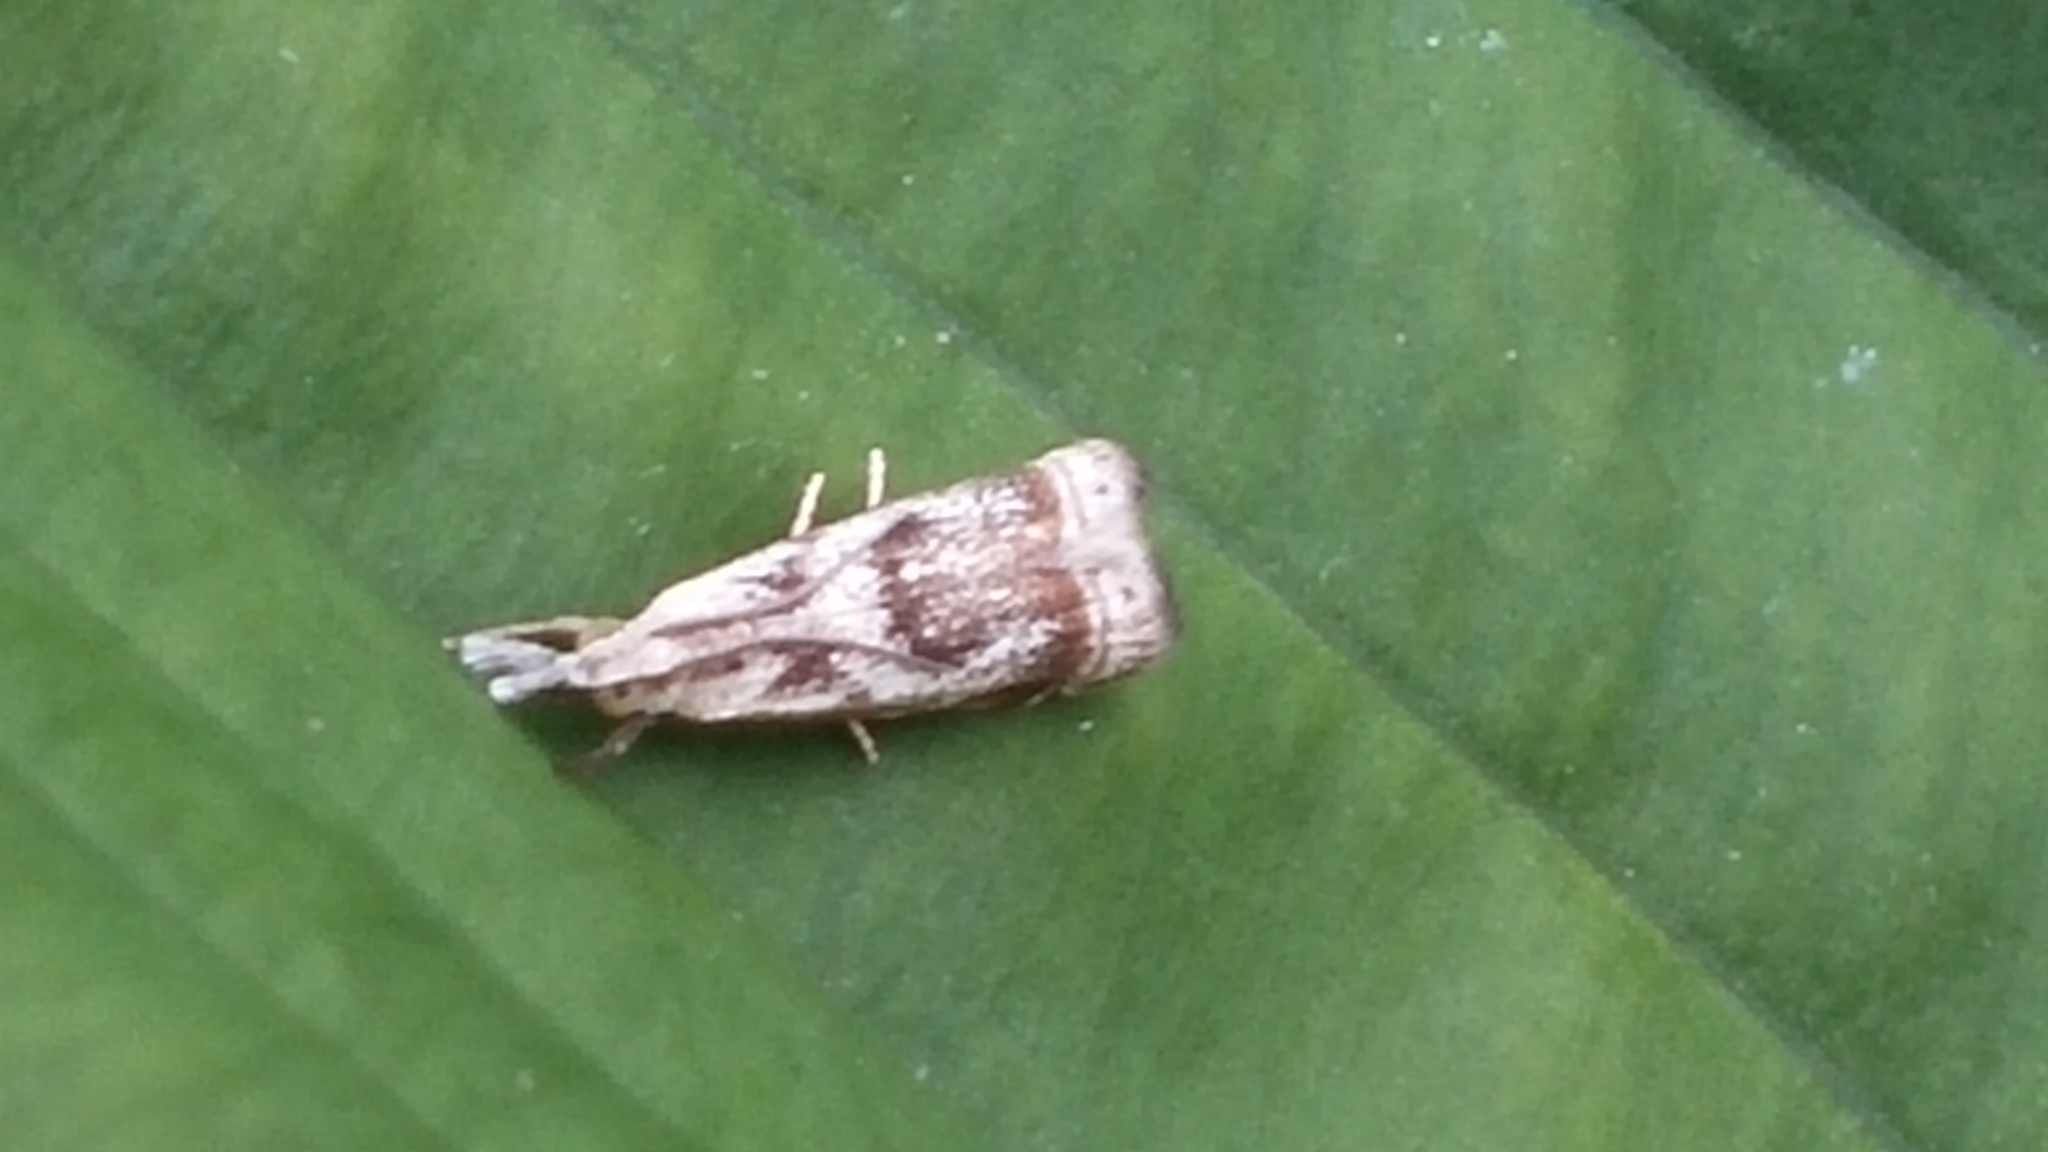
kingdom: Animalia
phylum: Arthropoda
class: Insecta
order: Lepidoptera
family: Crambidae
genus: Microcrambus
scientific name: Microcrambus elegans
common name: Elegant grass-veneer
